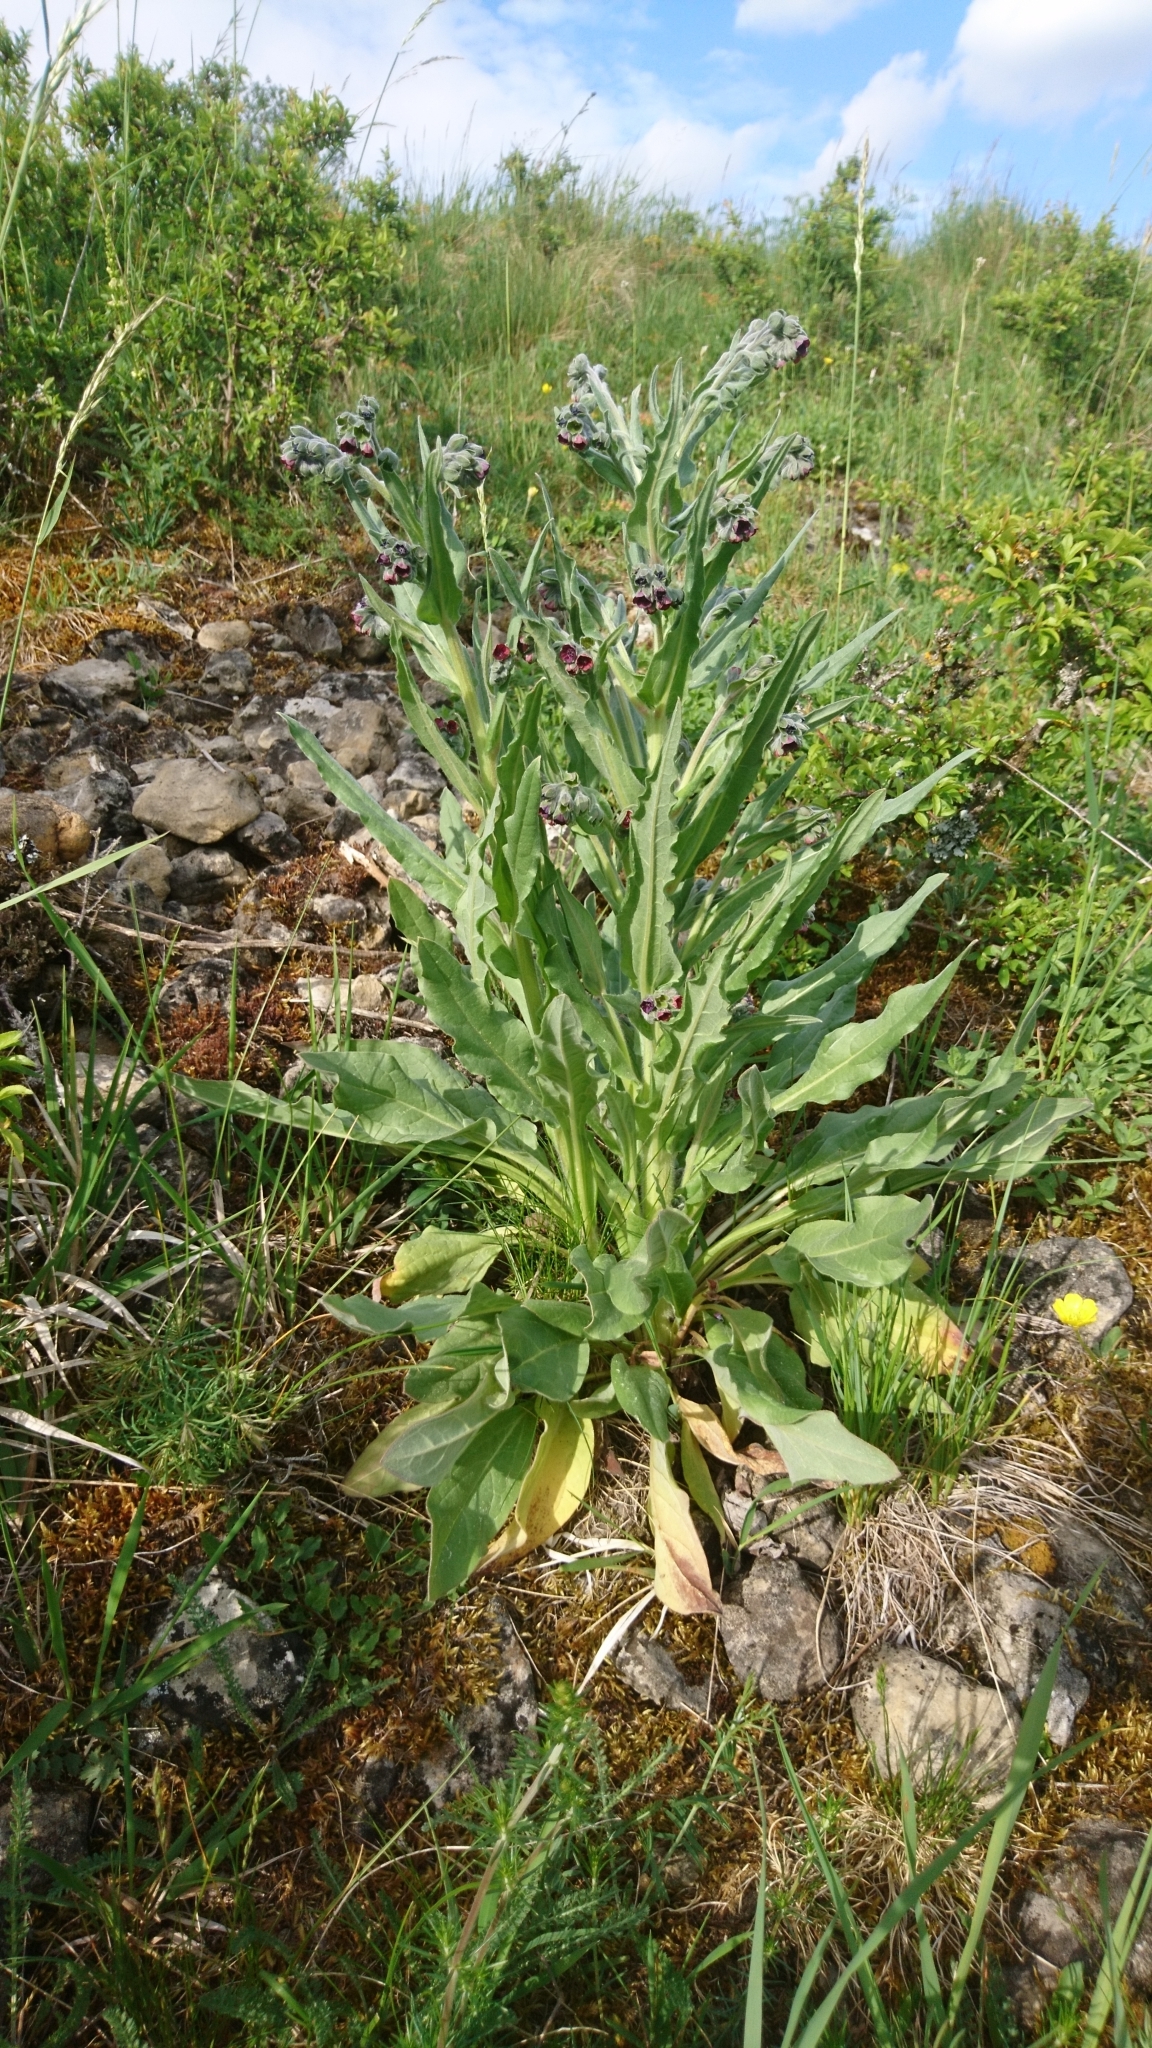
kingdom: Plantae
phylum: Tracheophyta
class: Magnoliopsida
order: Boraginales
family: Boraginaceae
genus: Cynoglossum
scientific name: Cynoglossum officinale
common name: Hound's-tongue
